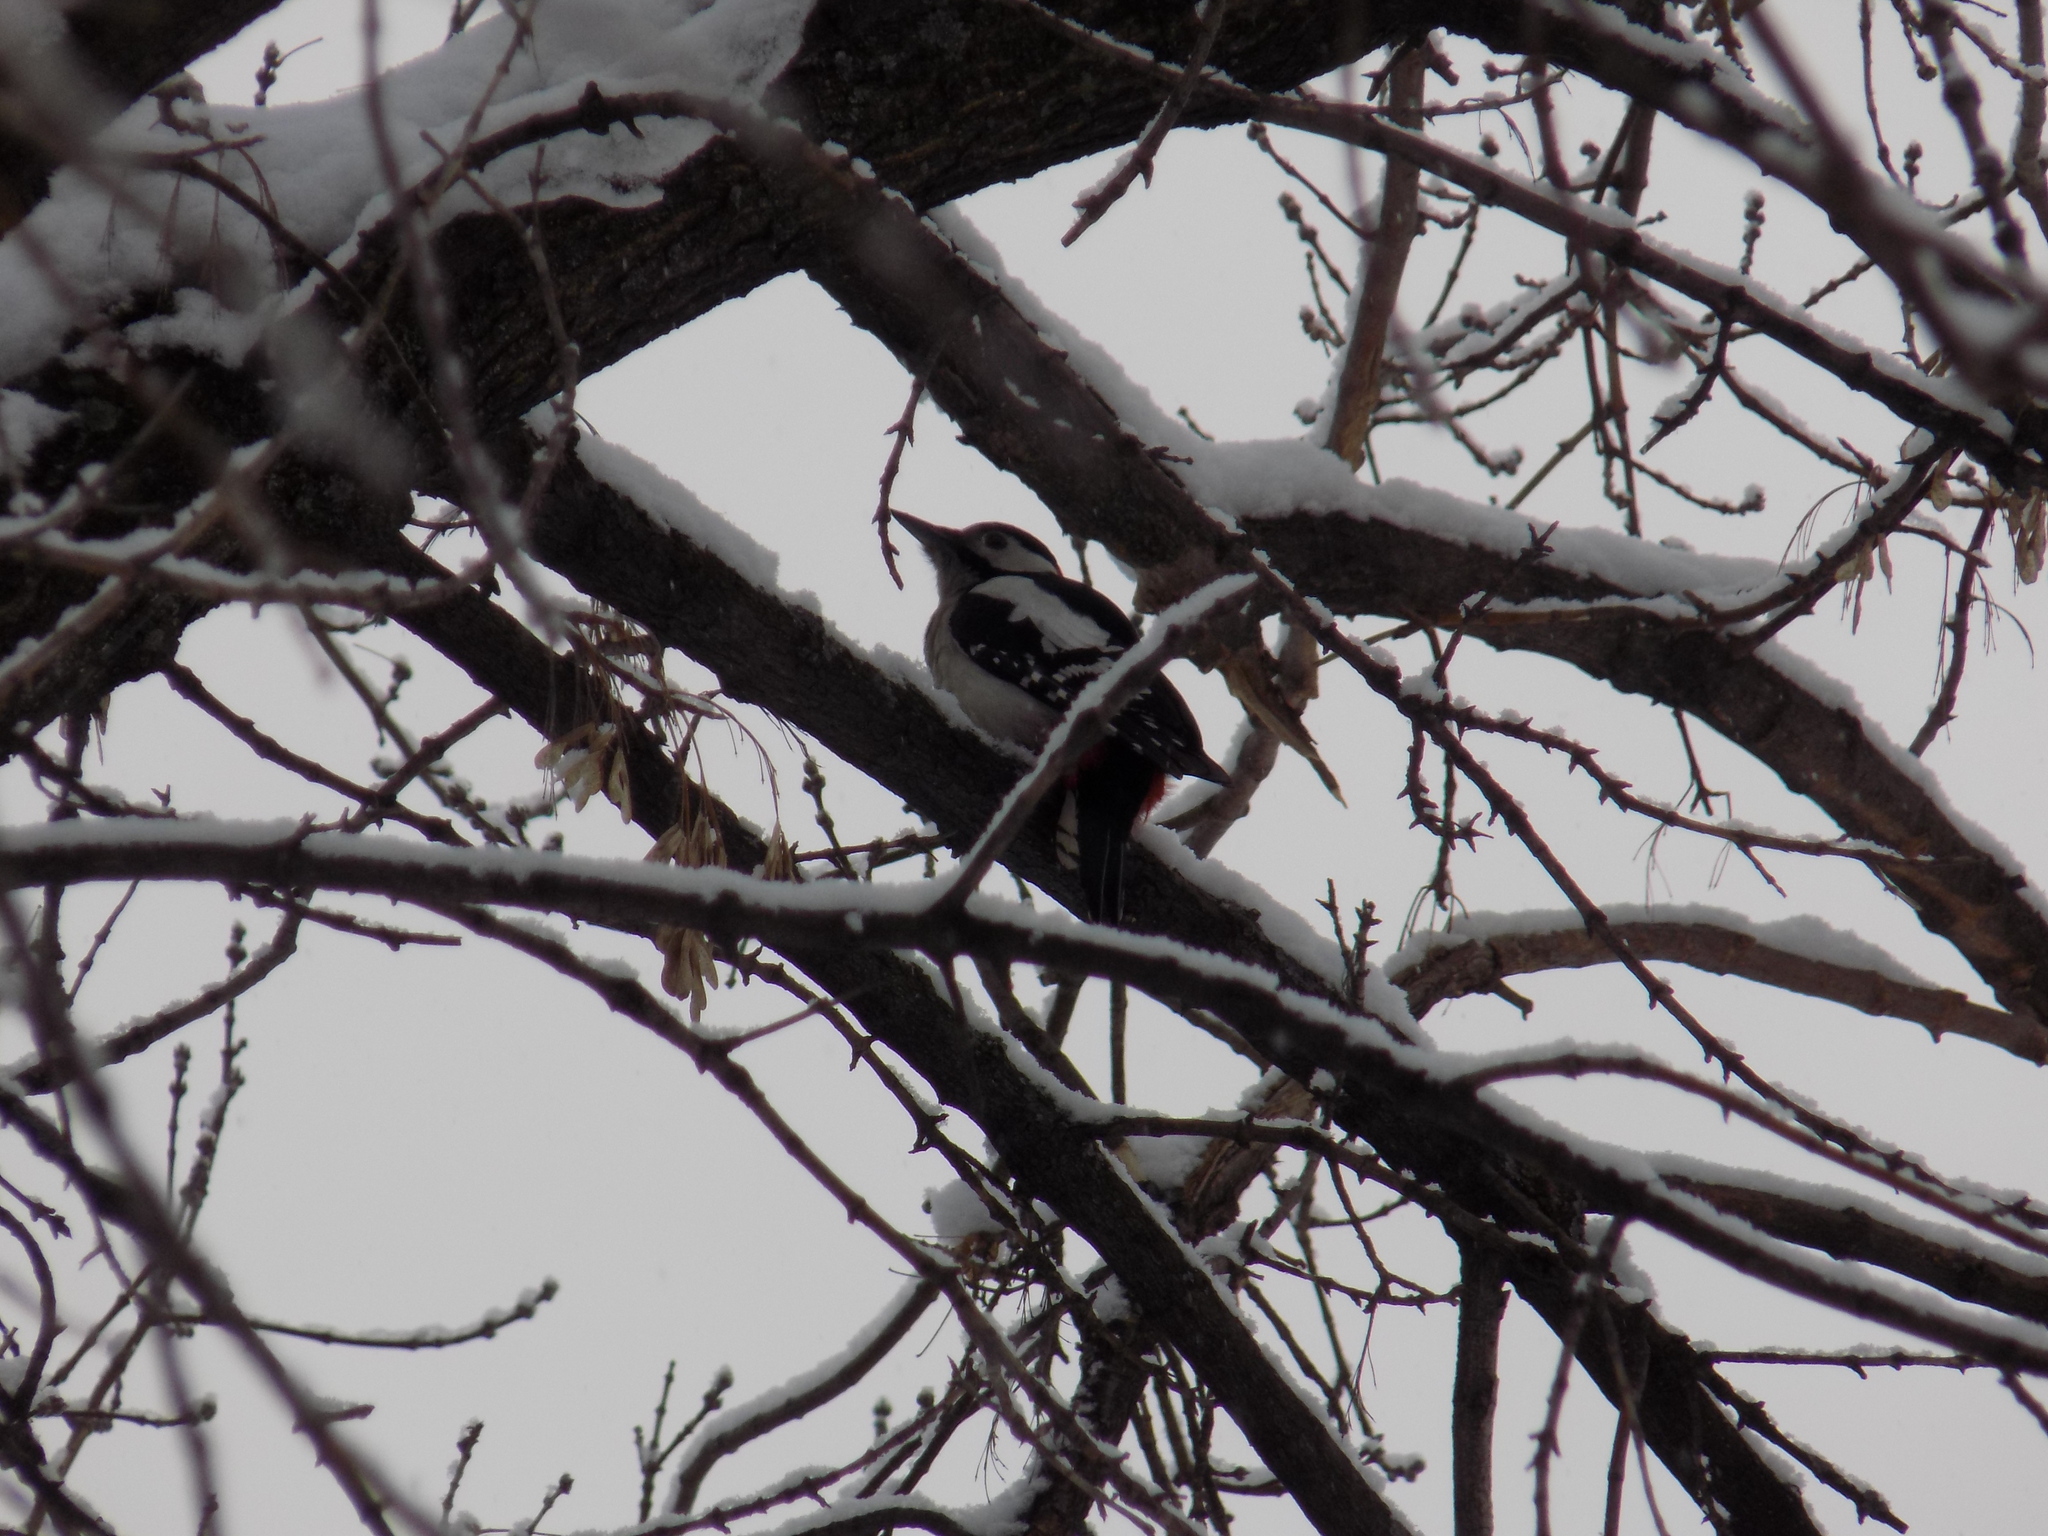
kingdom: Animalia
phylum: Chordata
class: Aves
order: Piciformes
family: Picidae
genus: Dendrocopos
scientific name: Dendrocopos major
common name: Great spotted woodpecker
